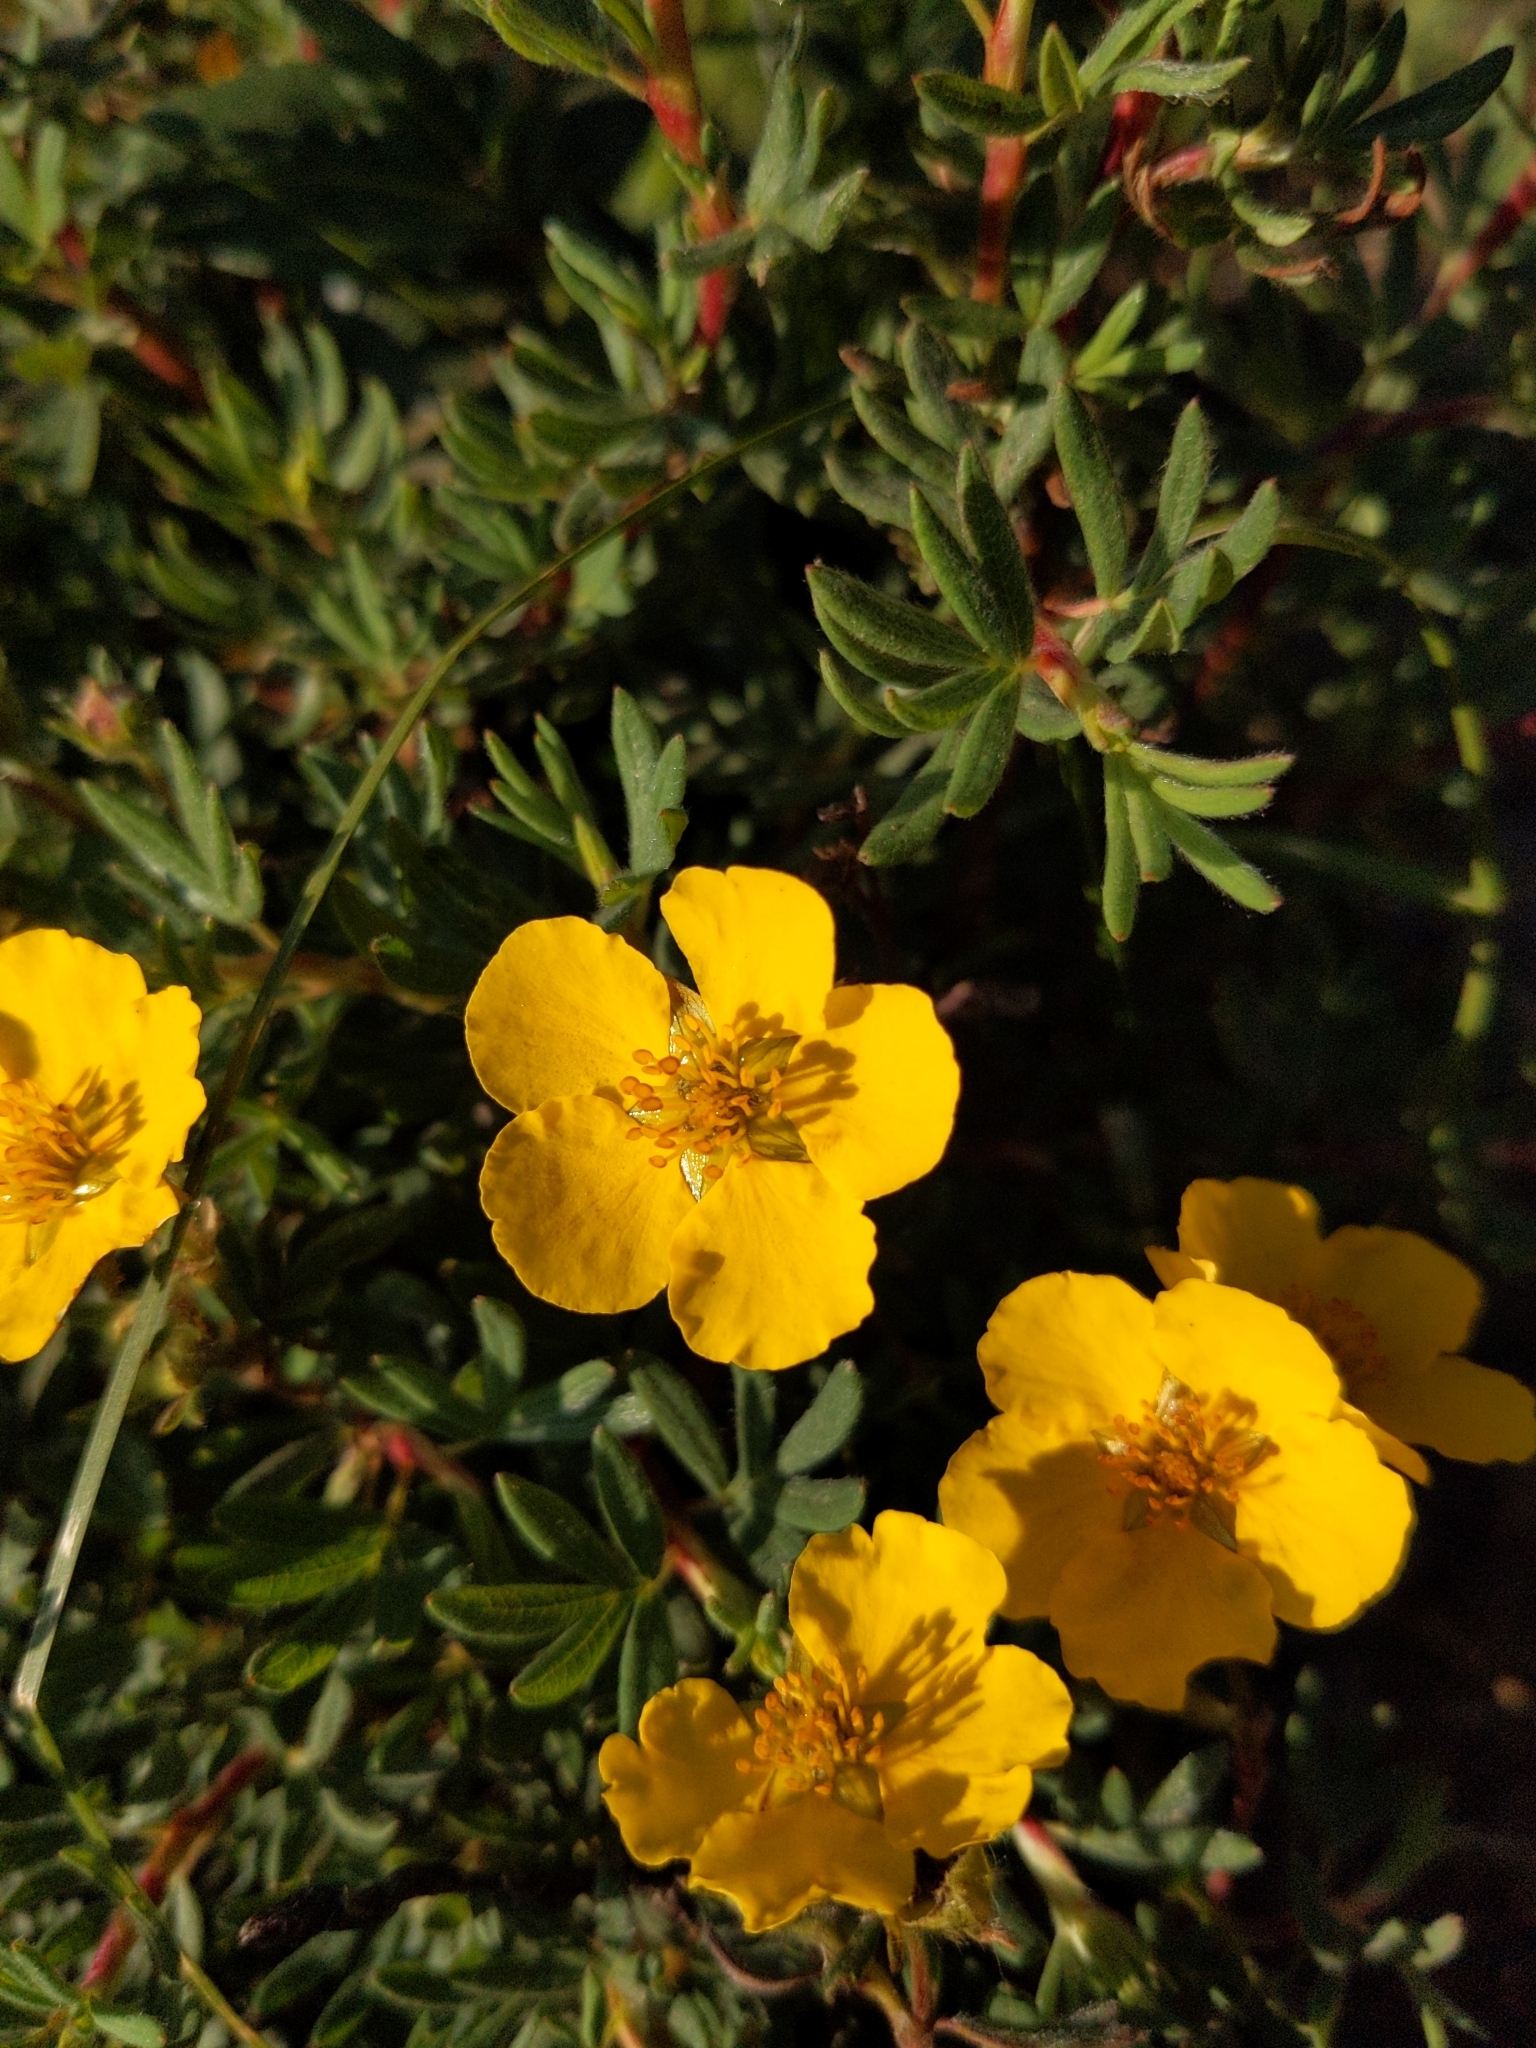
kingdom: Plantae
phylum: Tracheophyta
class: Magnoliopsida
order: Rosales
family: Rosaceae
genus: Dasiphora
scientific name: Dasiphora fruticosa
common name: Shrubby cinquefoil
